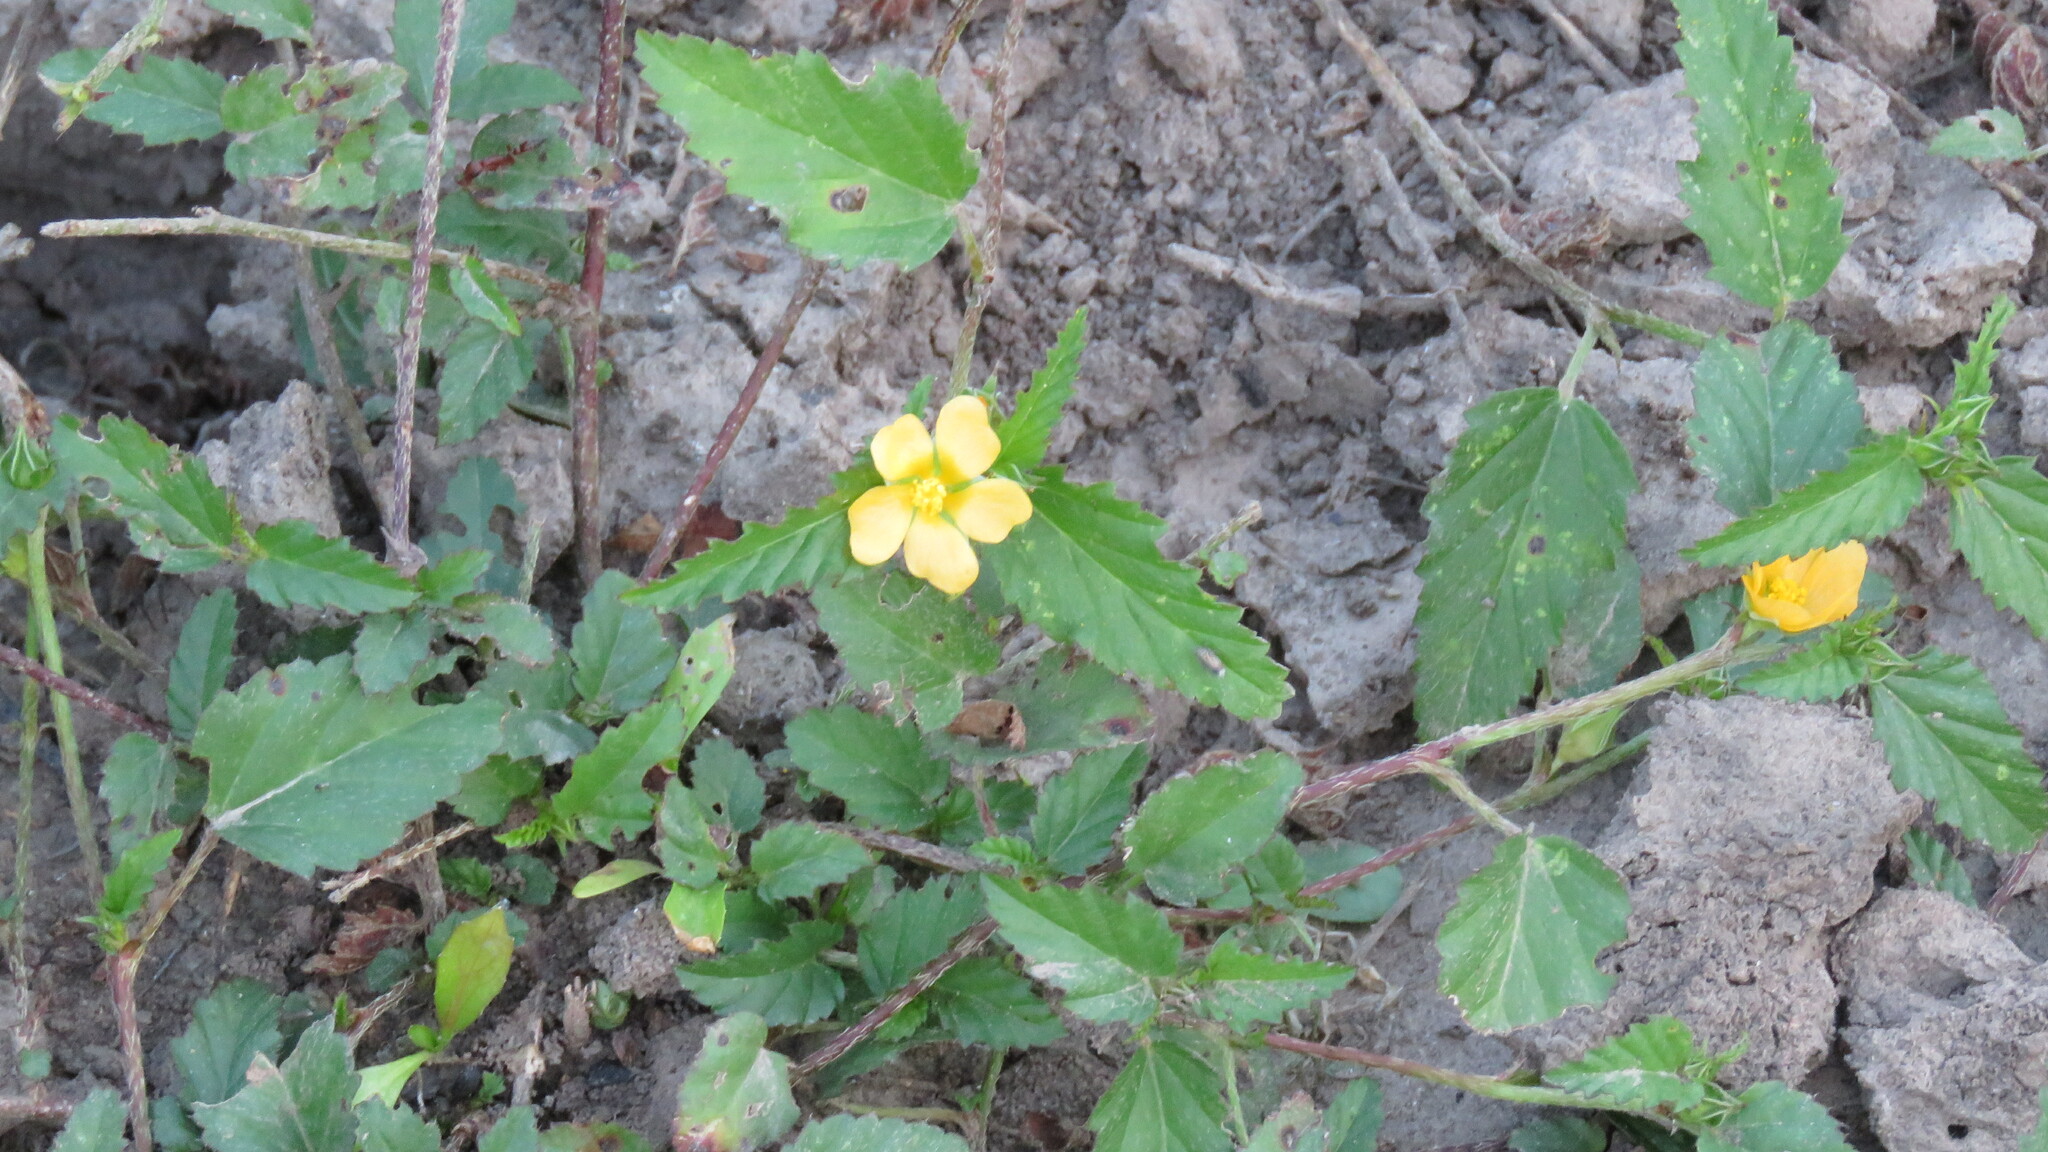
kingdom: Plantae
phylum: Tracheophyta
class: Magnoliopsida
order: Malvales
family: Malvaceae
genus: Melochia
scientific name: Melochia argentina
